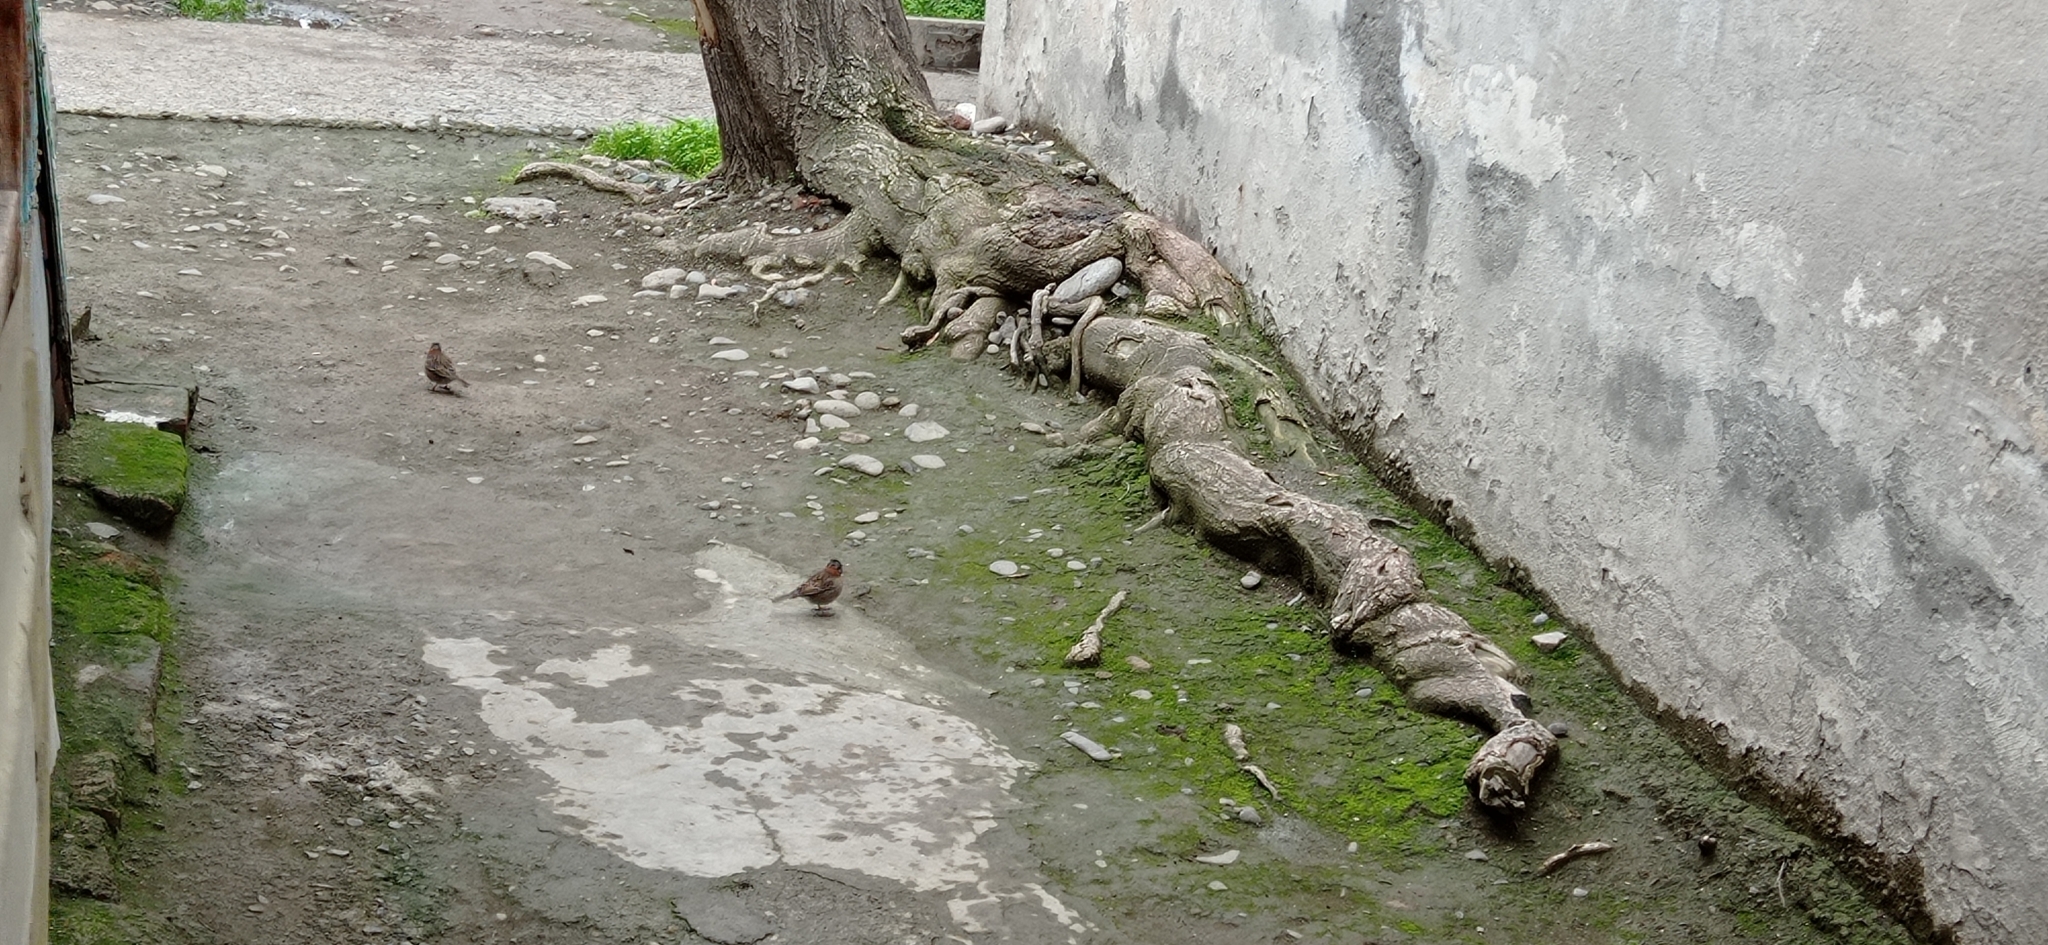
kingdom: Animalia
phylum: Chordata
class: Aves
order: Passeriformes
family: Passerellidae
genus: Zonotrichia
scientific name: Zonotrichia capensis
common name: Rufous-collared sparrow
